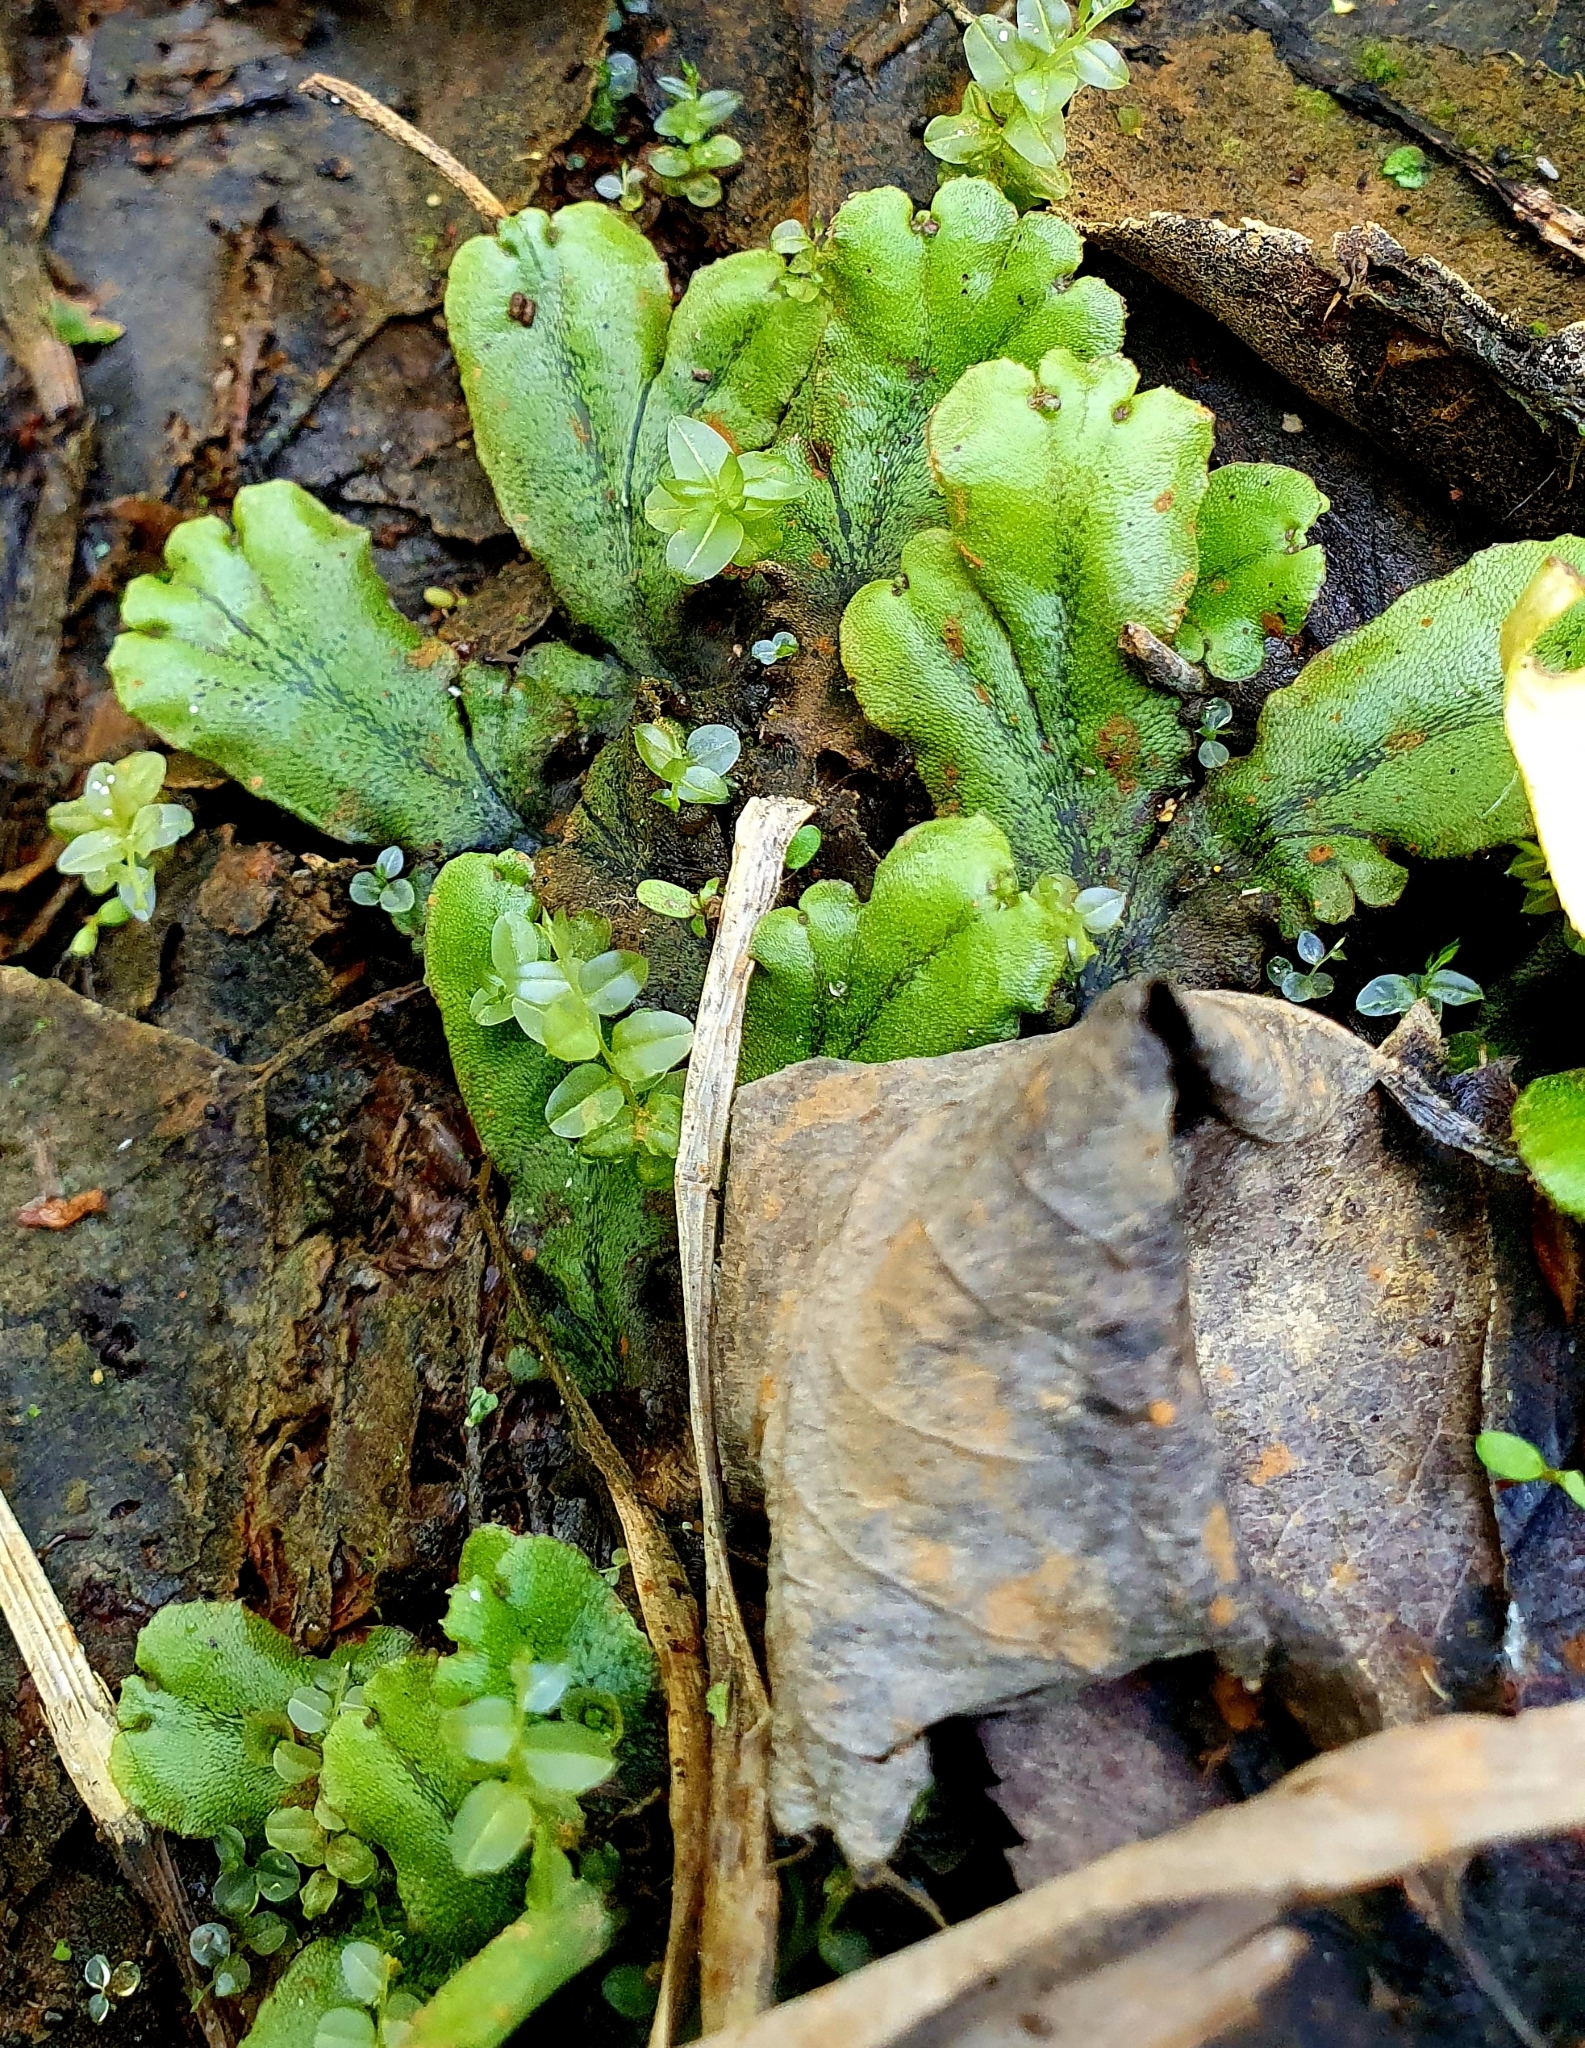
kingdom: Plantae
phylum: Marchantiophyta
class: Marchantiopsida
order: Marchantiales
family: Marchantiaceae
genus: Marchantia
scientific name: Marchantia polymorpha
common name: Common liverwort
